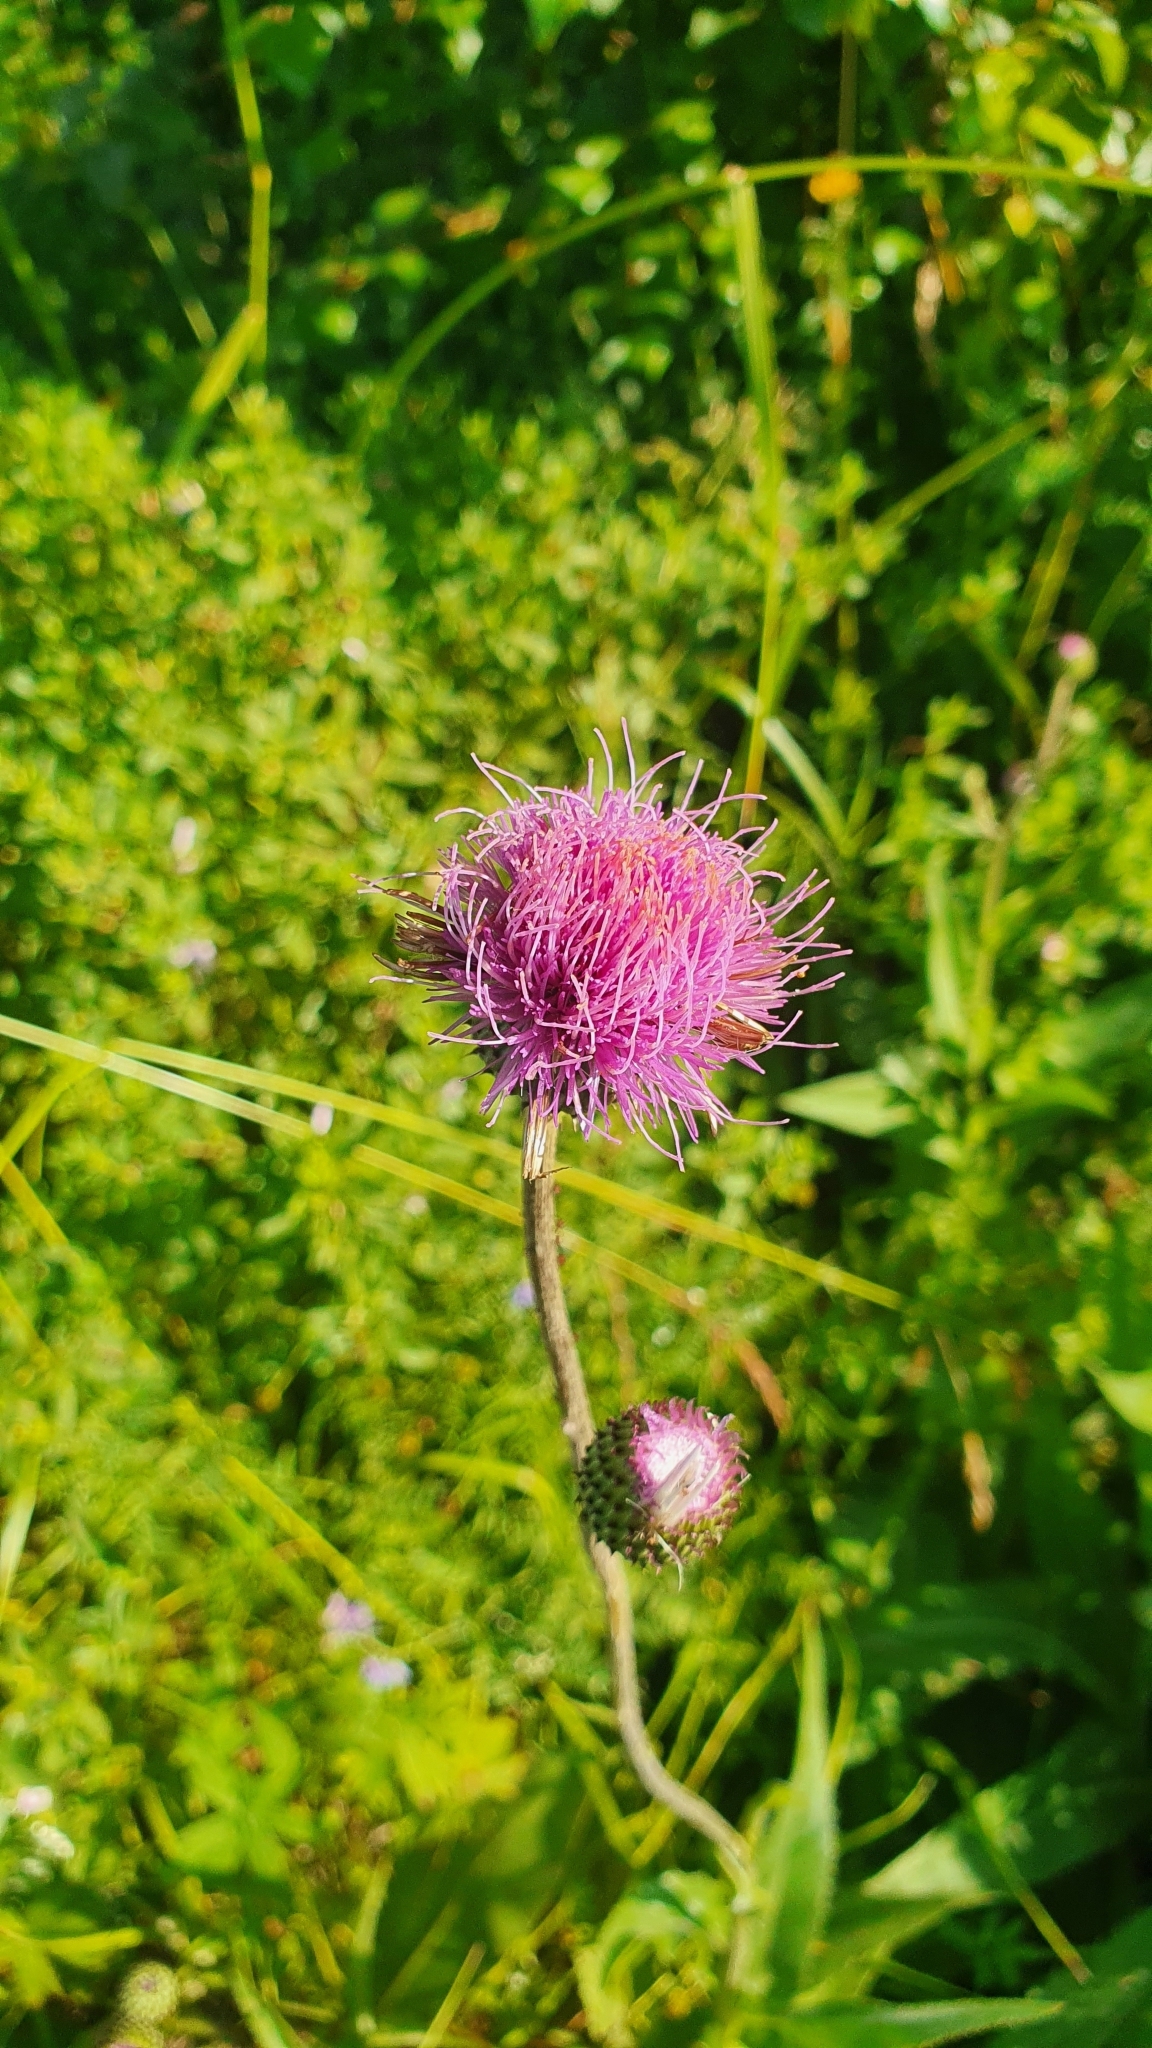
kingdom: Plantae
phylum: Tracheophyta
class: Magnoliopsida
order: Asterales
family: Asteraceae
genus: Cirsium
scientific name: Cirsium canum
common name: Queen anne's thistle
